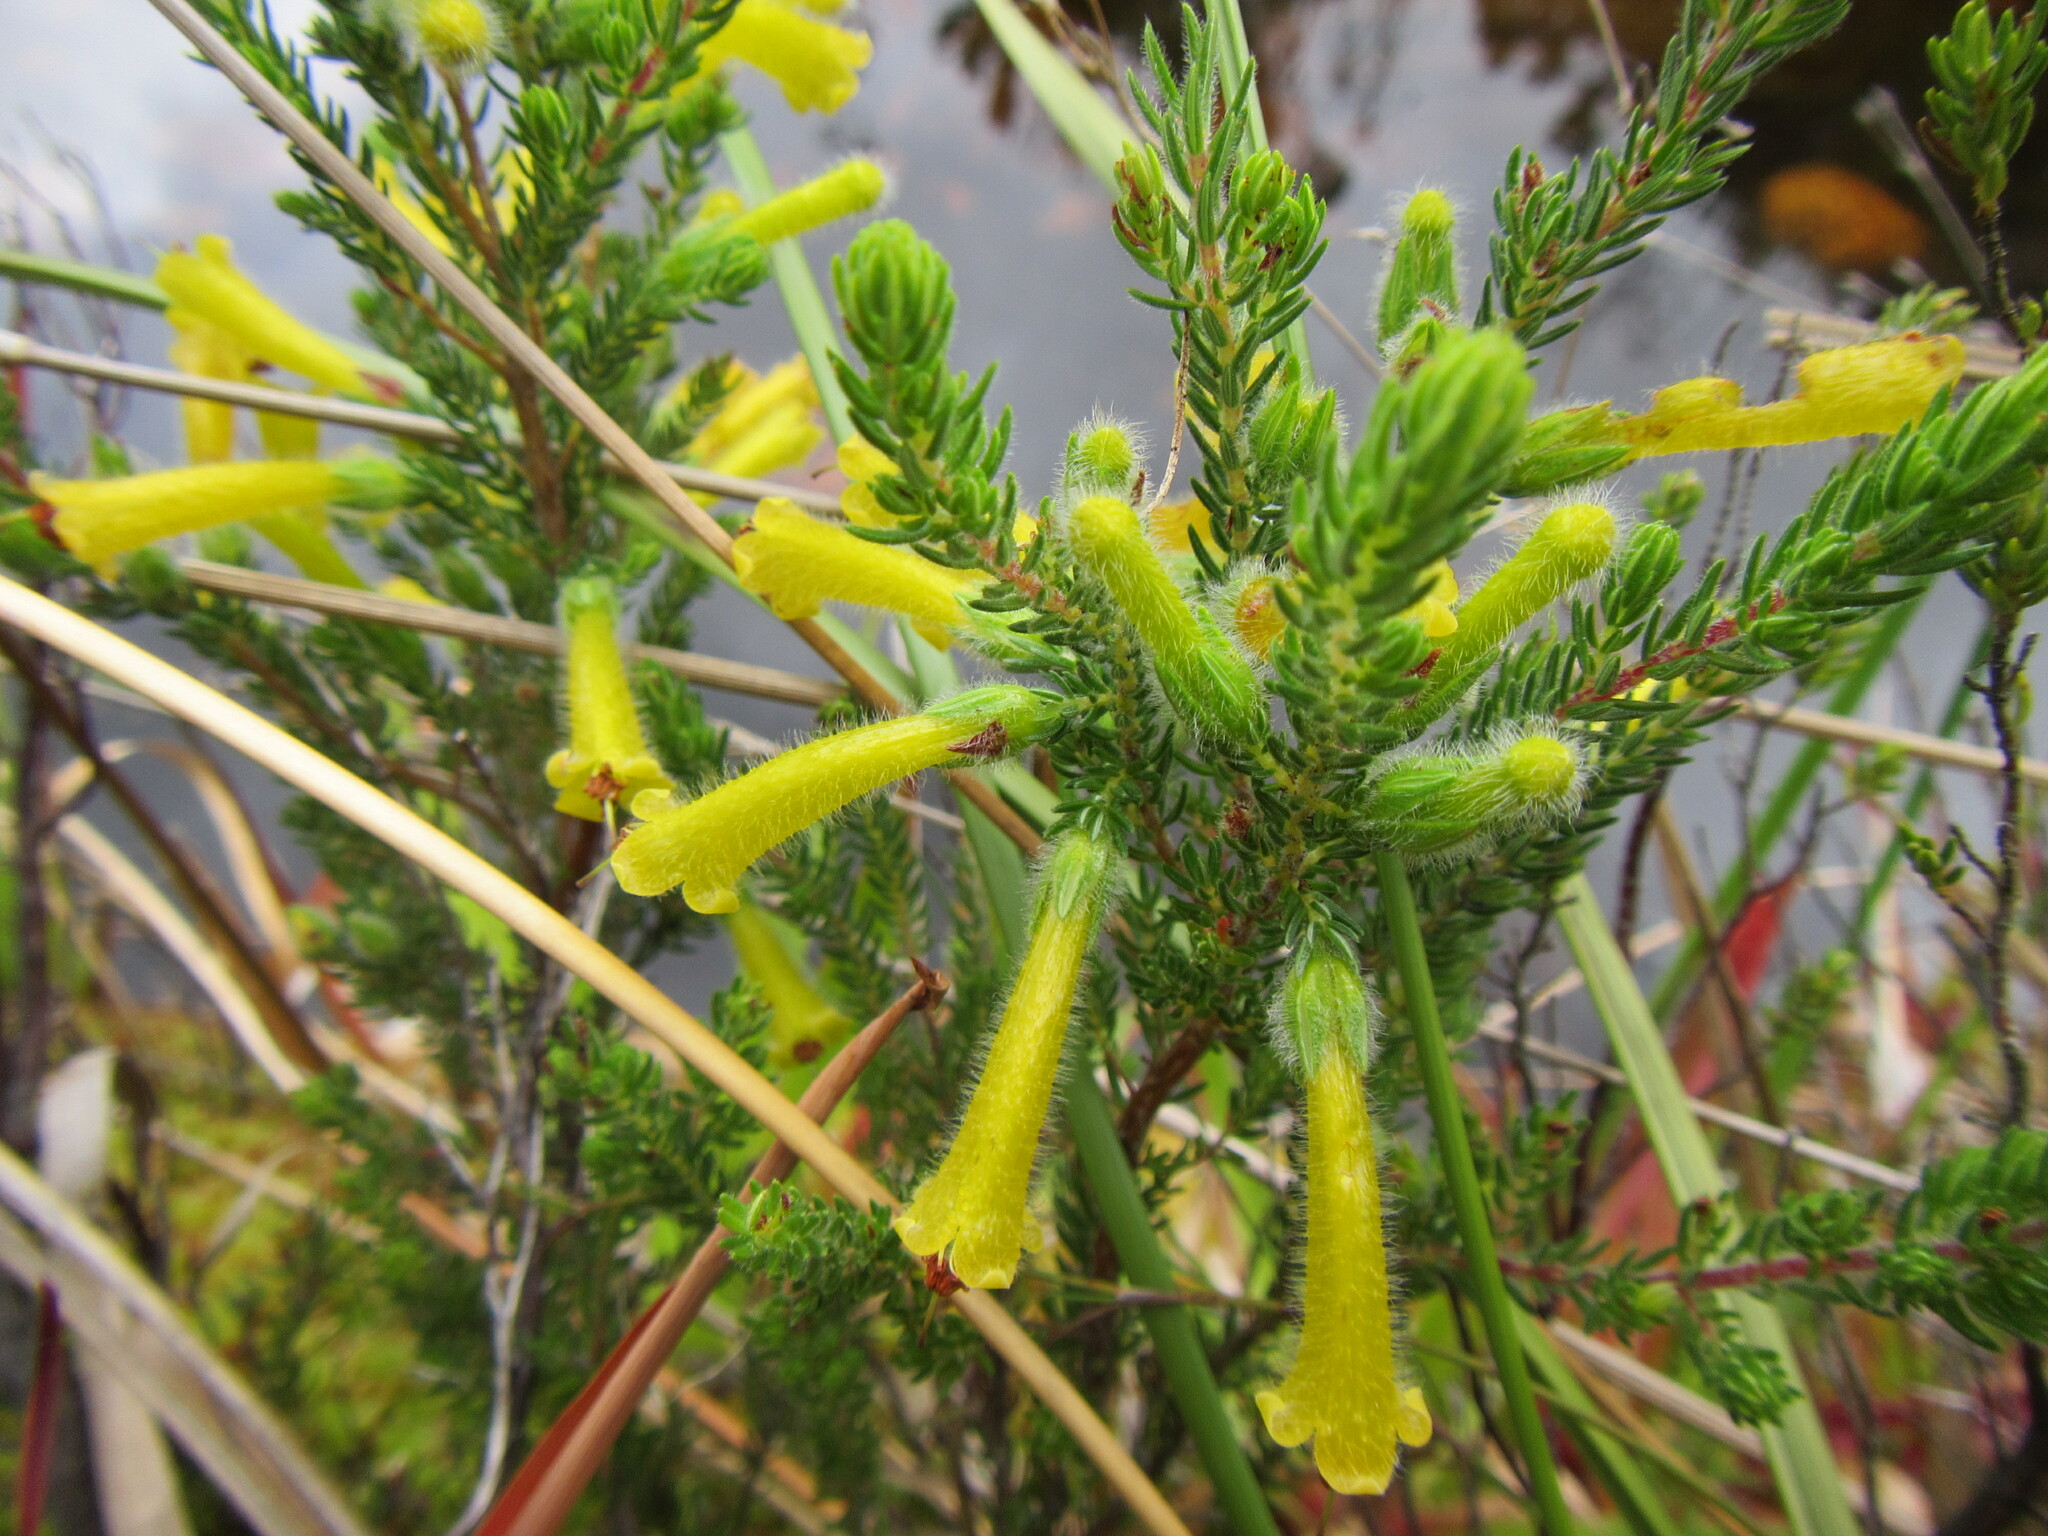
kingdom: Plantae
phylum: Tracheophyta
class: Magnoliopsida
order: Ericales
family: Ericaceae
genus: Erica
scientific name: Erica stagnalis
